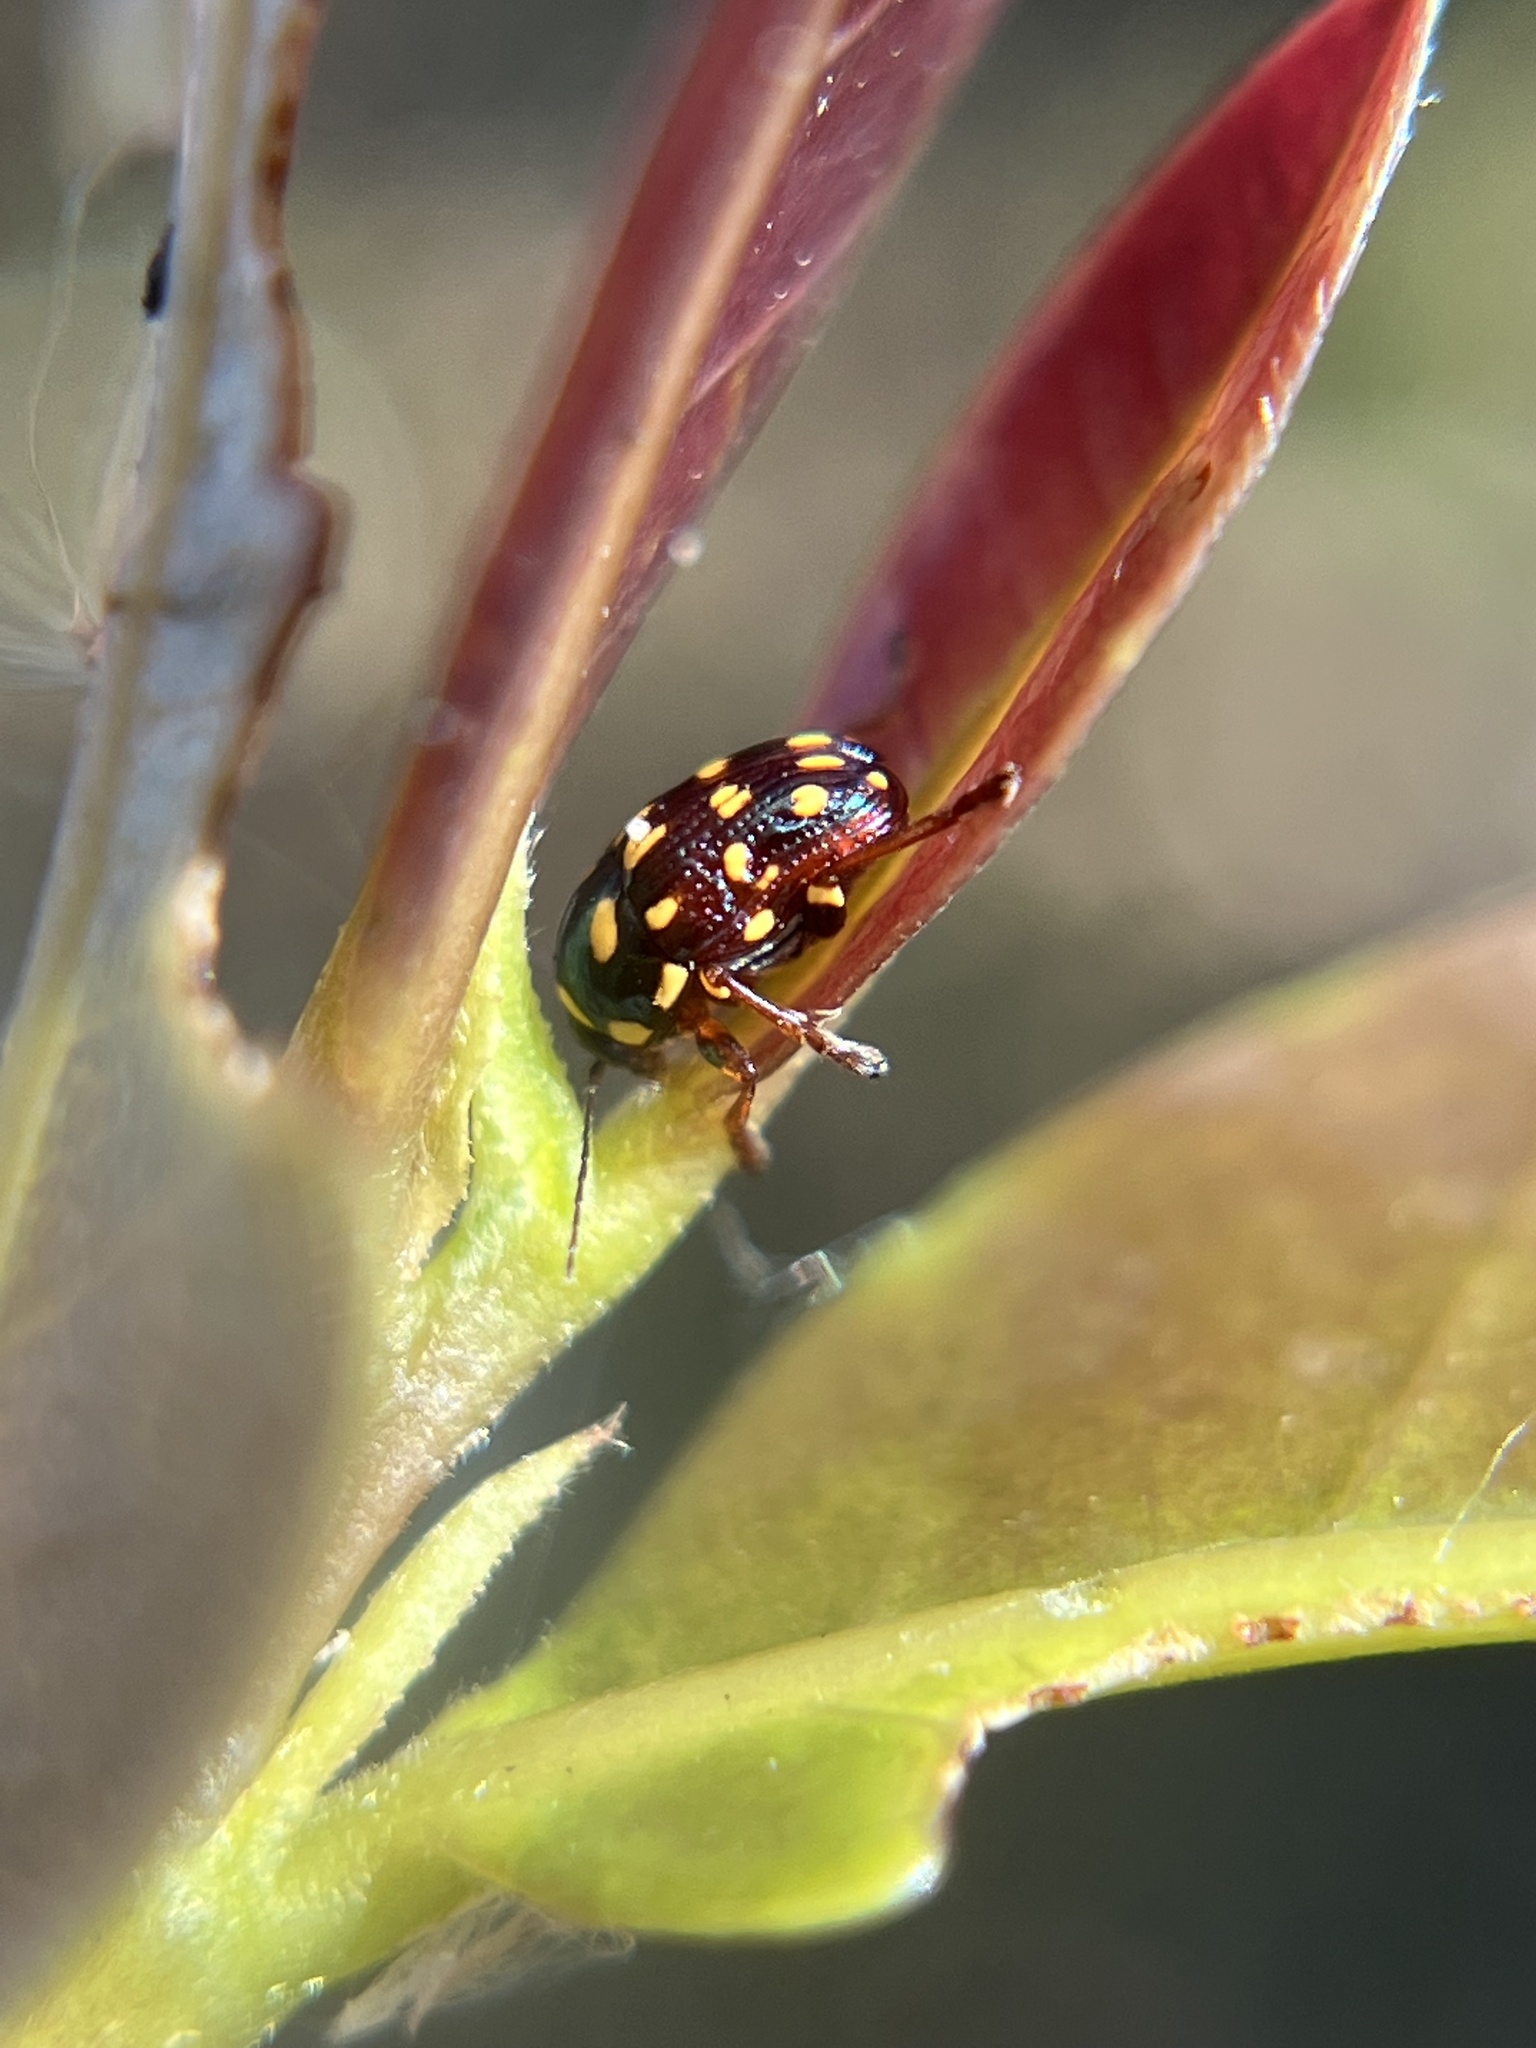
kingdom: Animalia
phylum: Arthropoda
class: Insecta
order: Coleoptera
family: Chrysomelidae
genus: Cryptocephalus
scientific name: Cryptocephalus nigrocinctus
